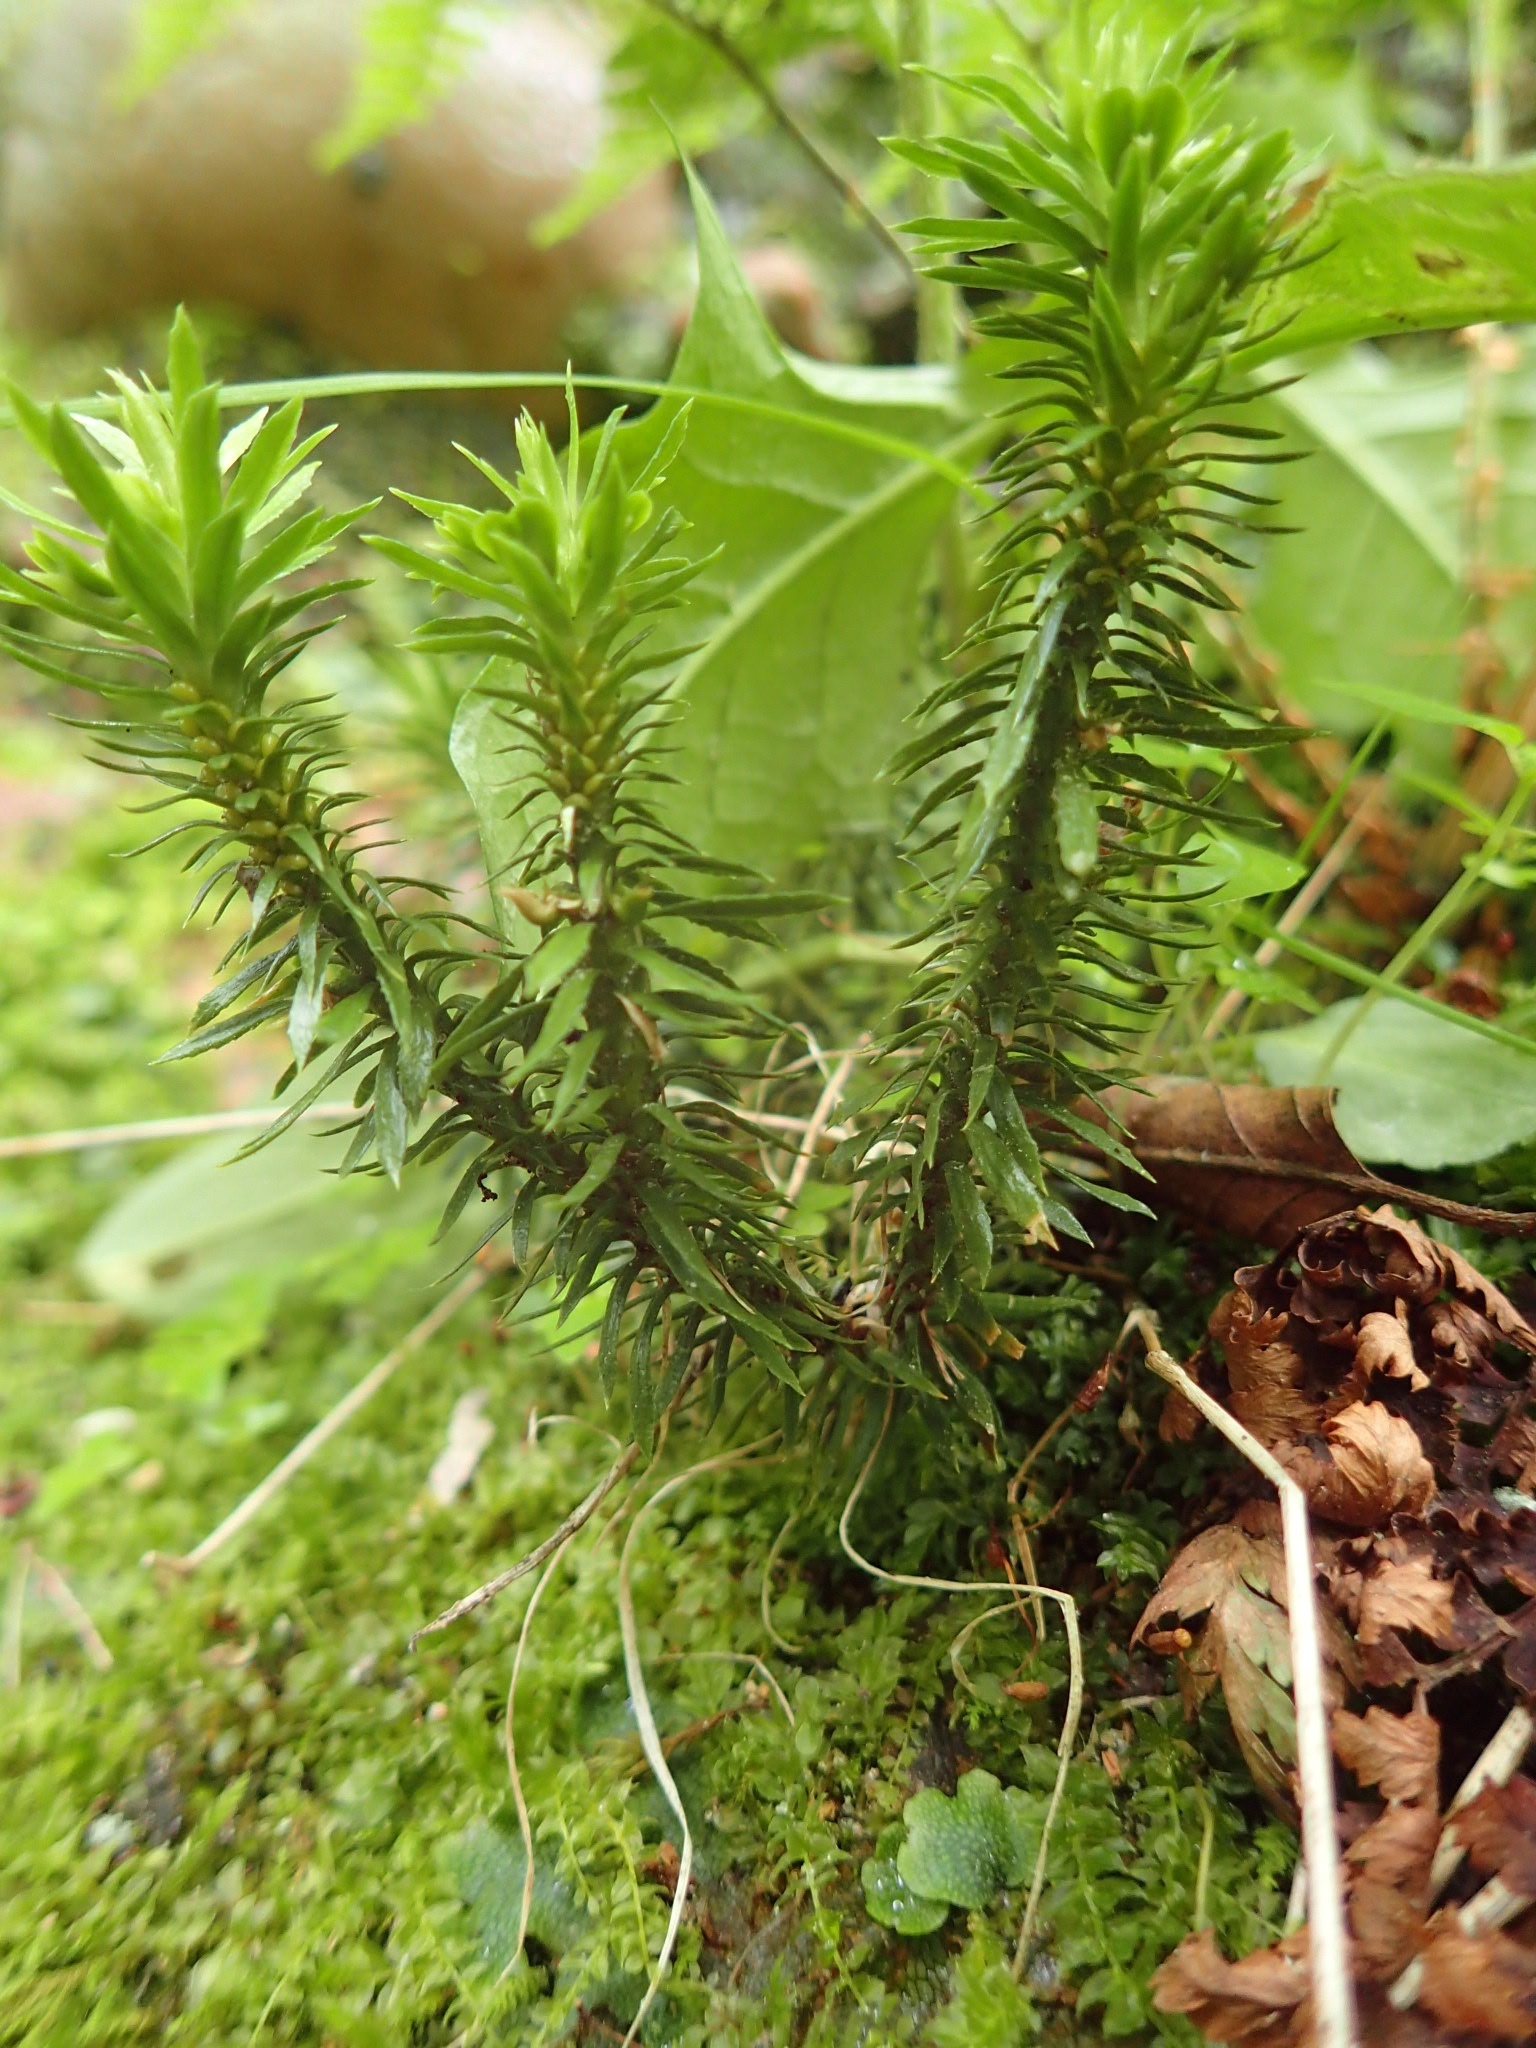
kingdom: Plantae
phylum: Tracheophyta
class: Lycopodiopsida
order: Lycopodiales
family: Lycopodiaceae
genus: Huperzia
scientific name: Huperzia lucidula
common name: Shining clubmoss
